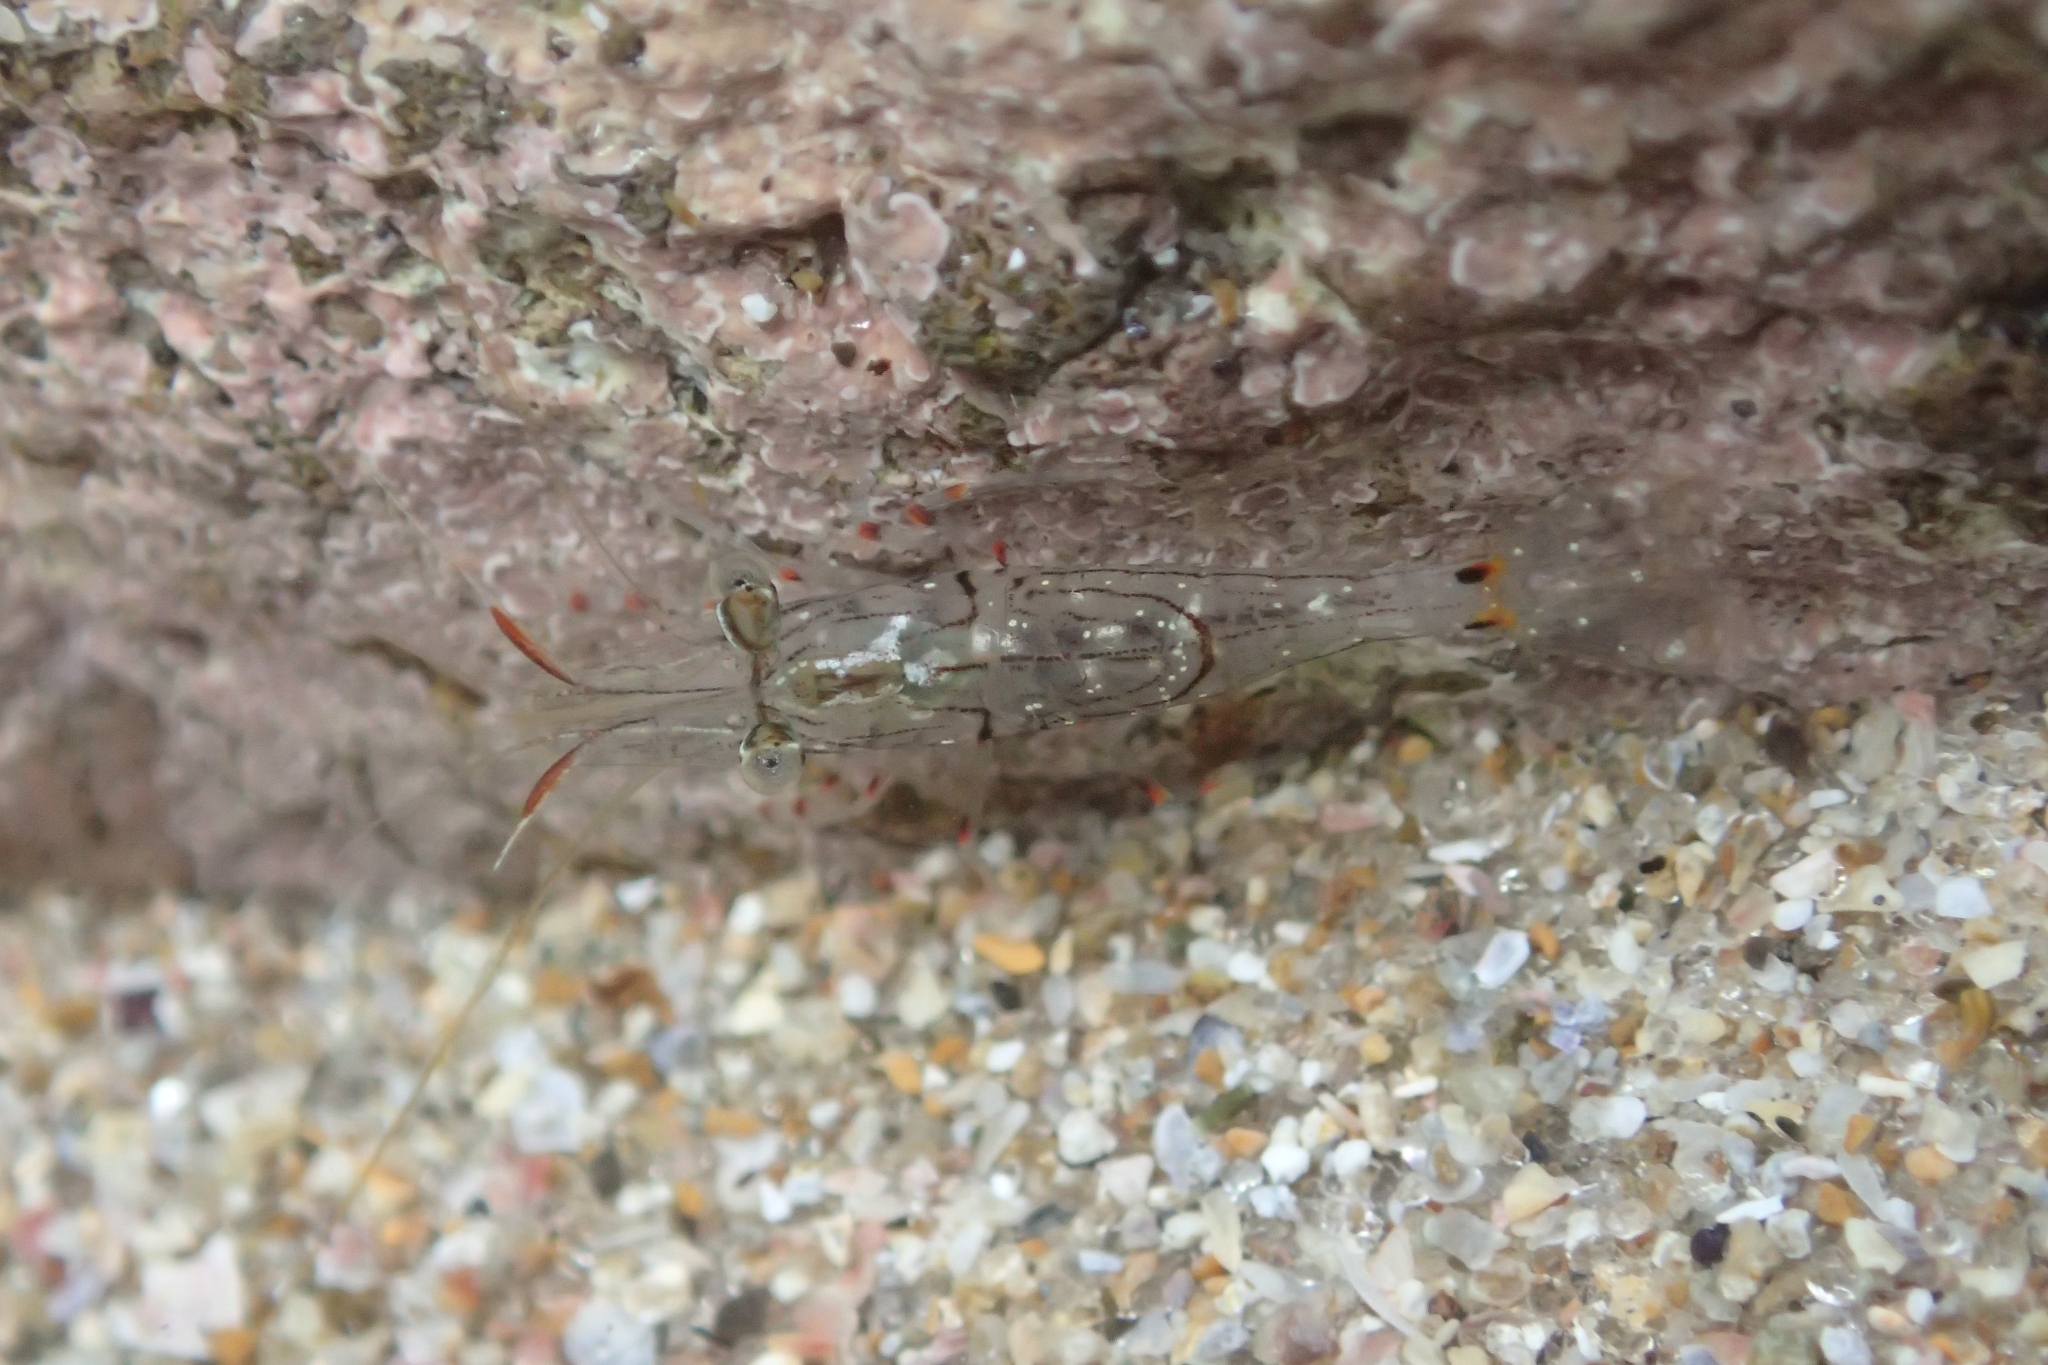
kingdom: Animalia
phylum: Arthropoda
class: Malacostraca
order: Decapoda
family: Palaemonidae
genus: Palaemon
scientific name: Palaemon affinis
